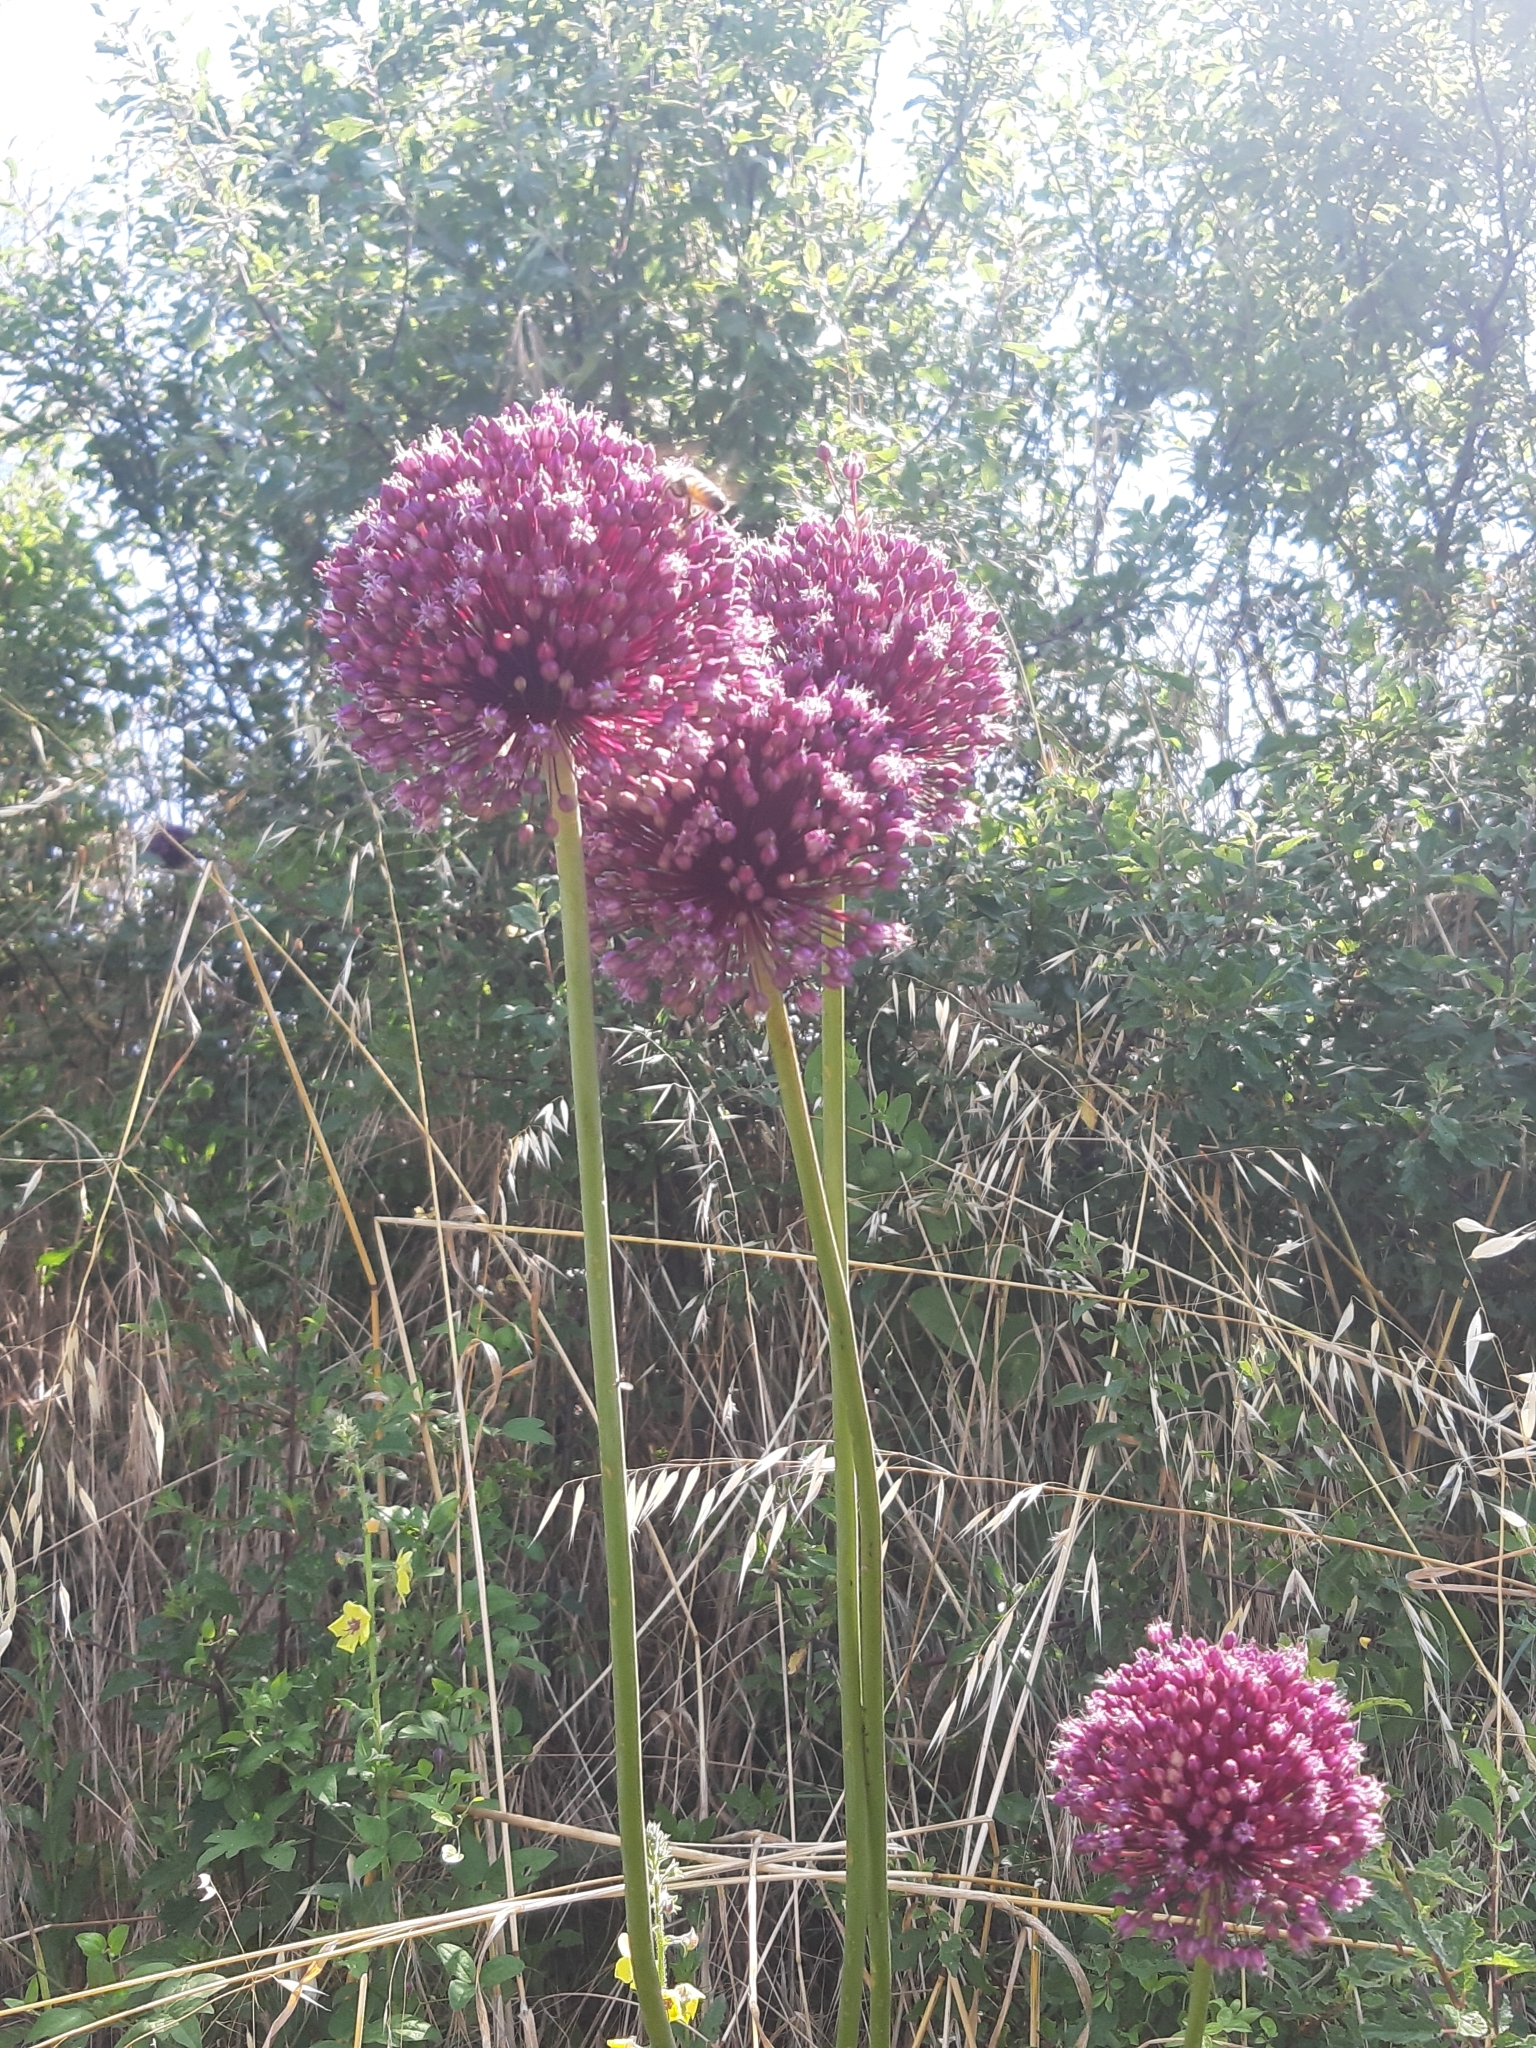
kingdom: Plantae
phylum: Tracheophyta
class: Liliopsida
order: Asparagales
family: Amaryllidaceae
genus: Allium
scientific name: Allium sphaerocephalon
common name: Round-headed leek
